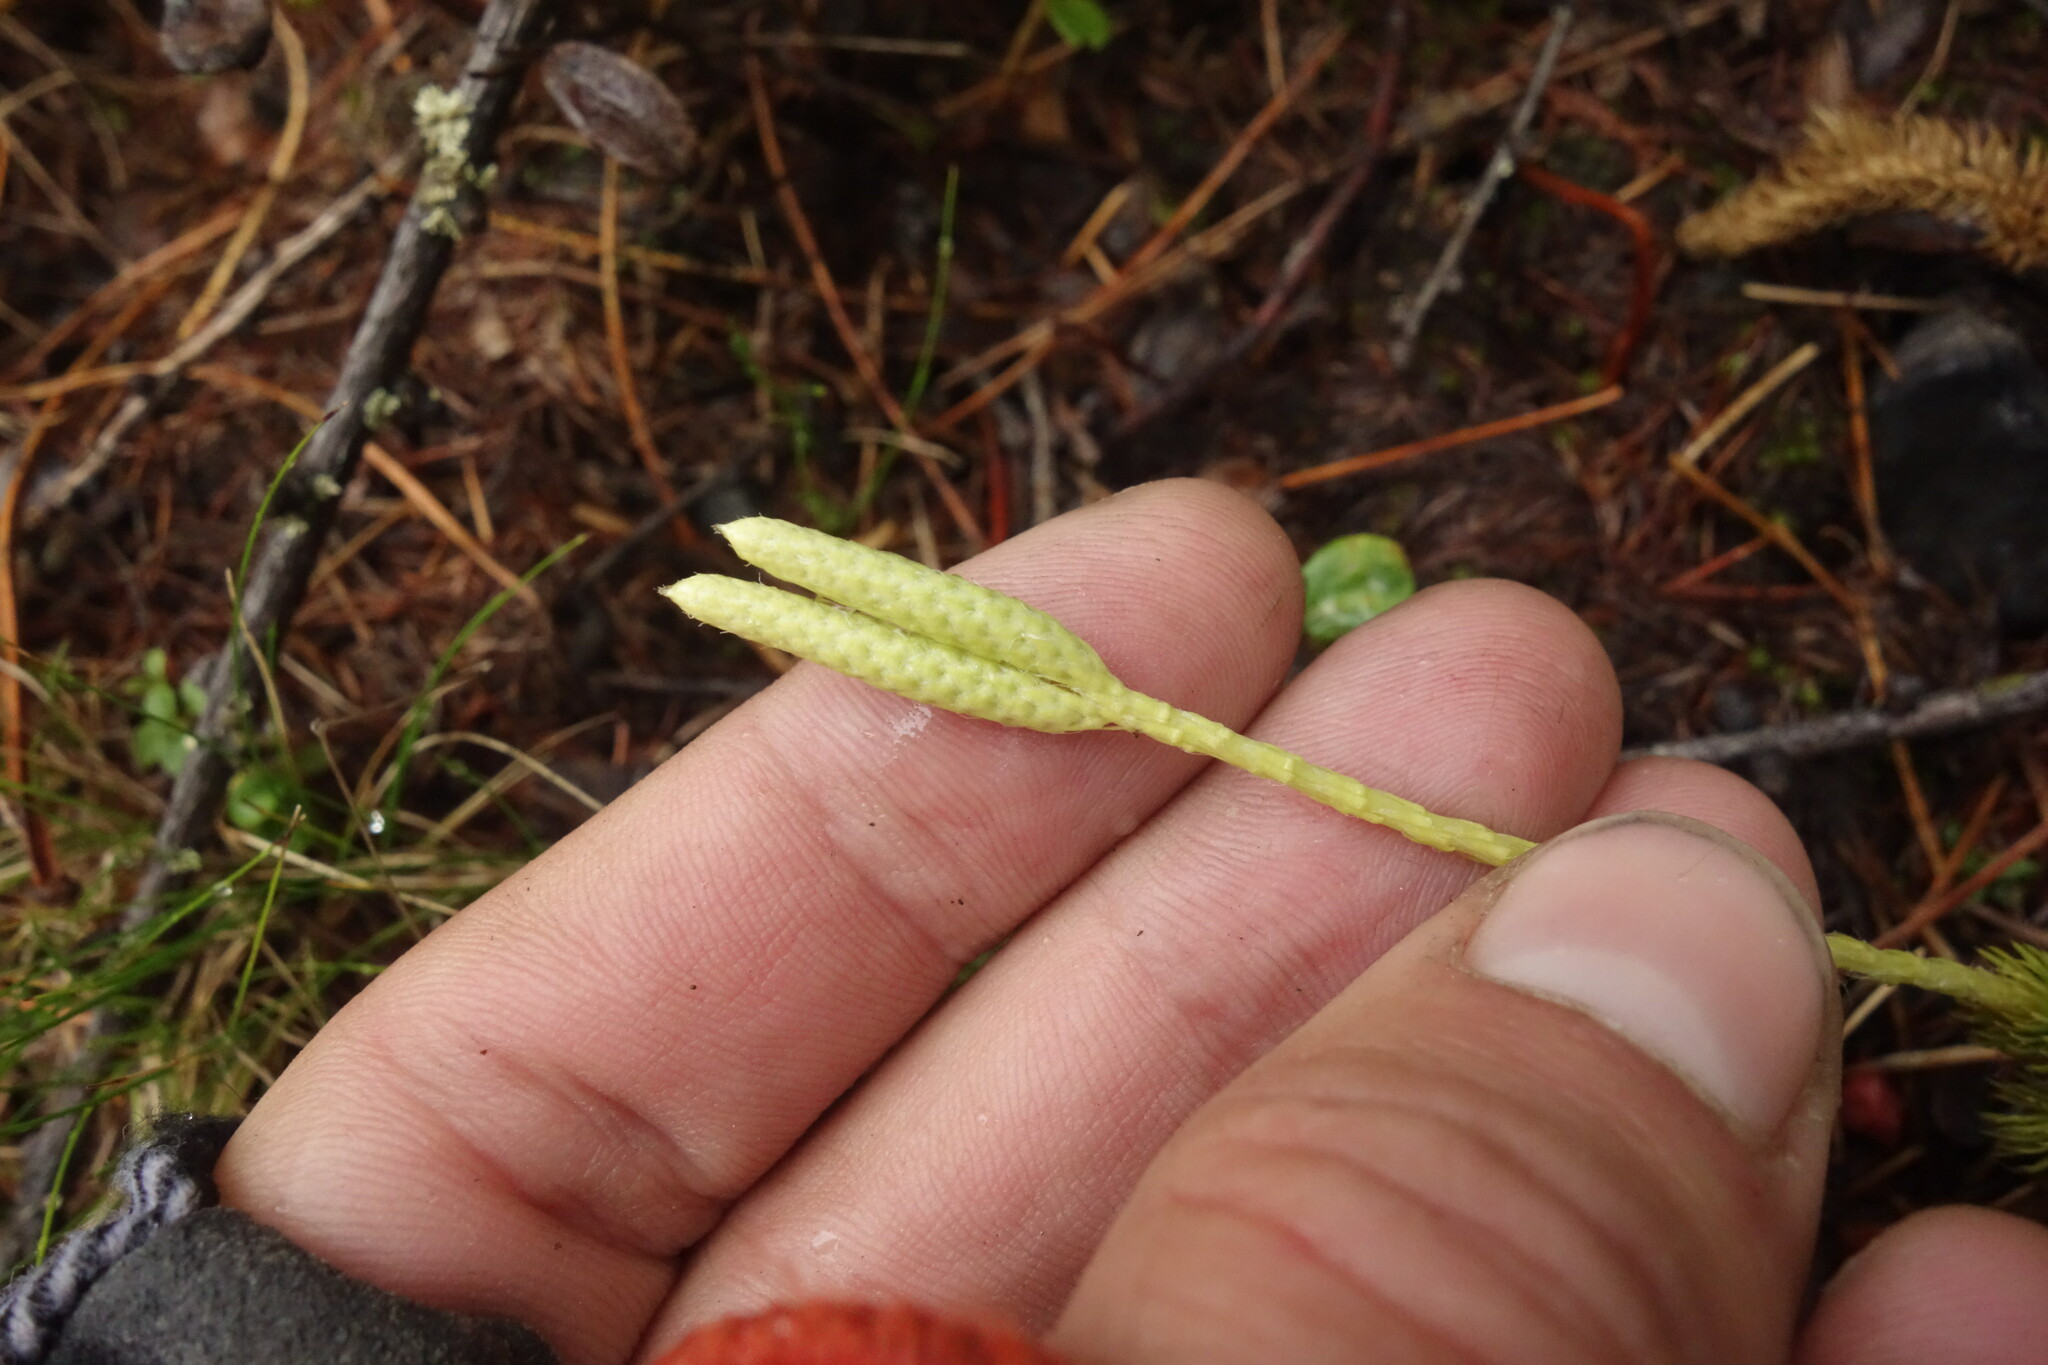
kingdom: Plantae
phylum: Tracheophyta
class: Lycopodiopsida
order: Lycopodiales
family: Lycopodiaceae
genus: Lycopodium
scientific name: Lycopodium clavatum
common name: Stag's-horn clubmoss
